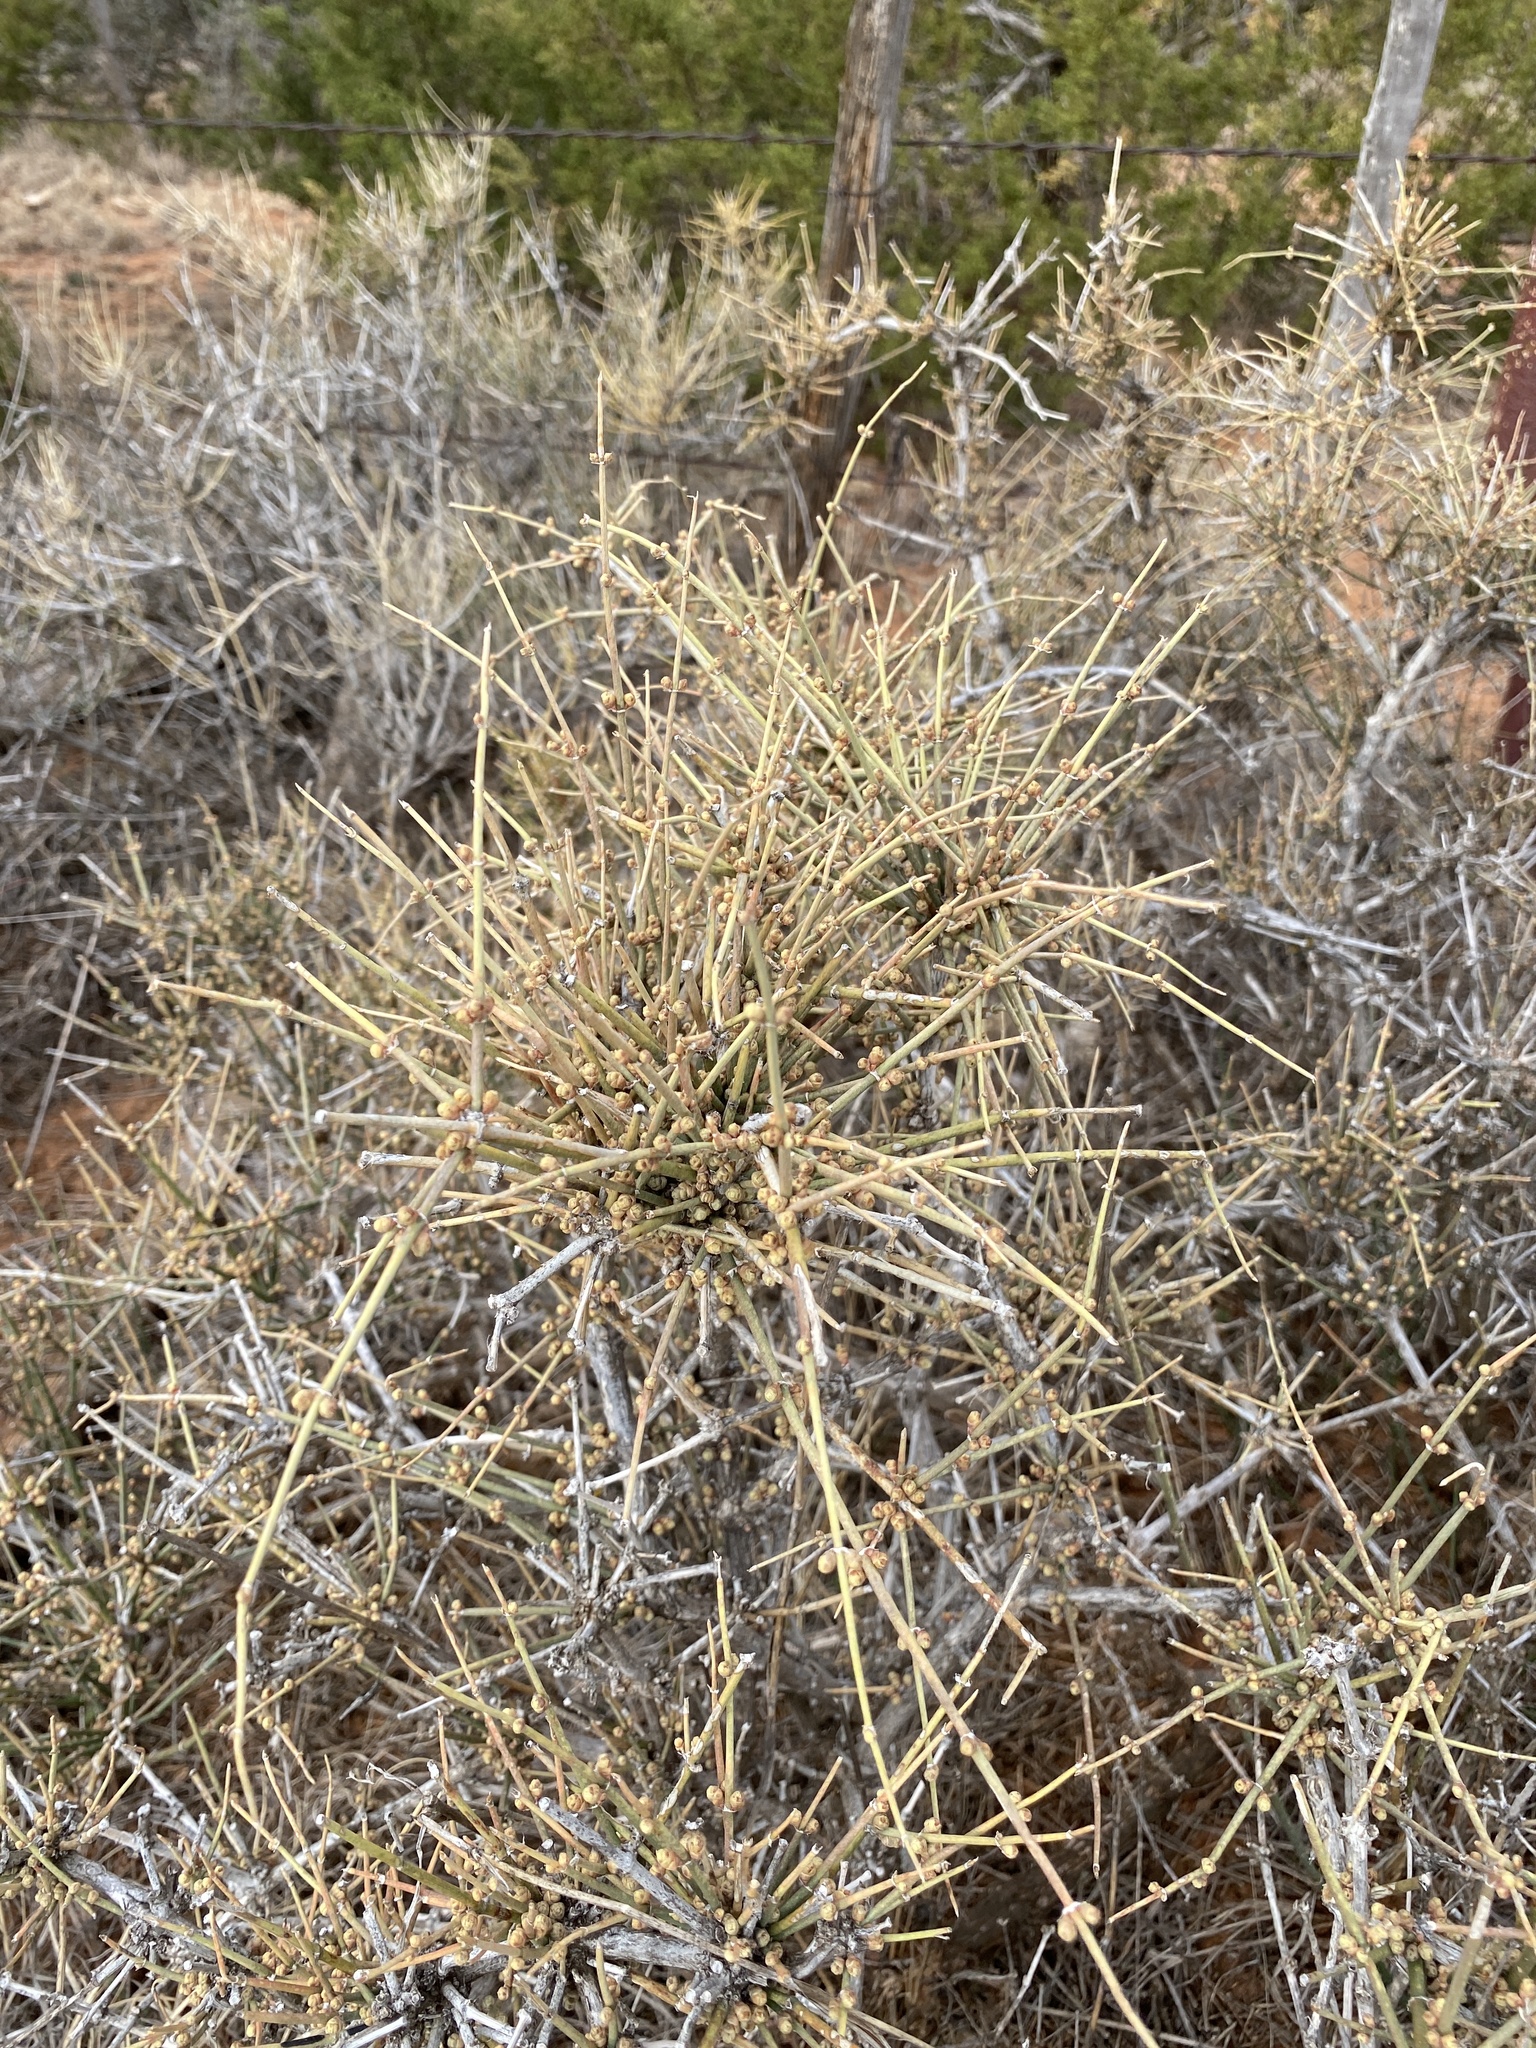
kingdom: Plantae
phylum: Tracheophyta
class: Gnetopsida
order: Ephedrales
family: Ephedraceae
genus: Ephedra
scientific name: Ephedra antisyphilitica
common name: Clipweed
